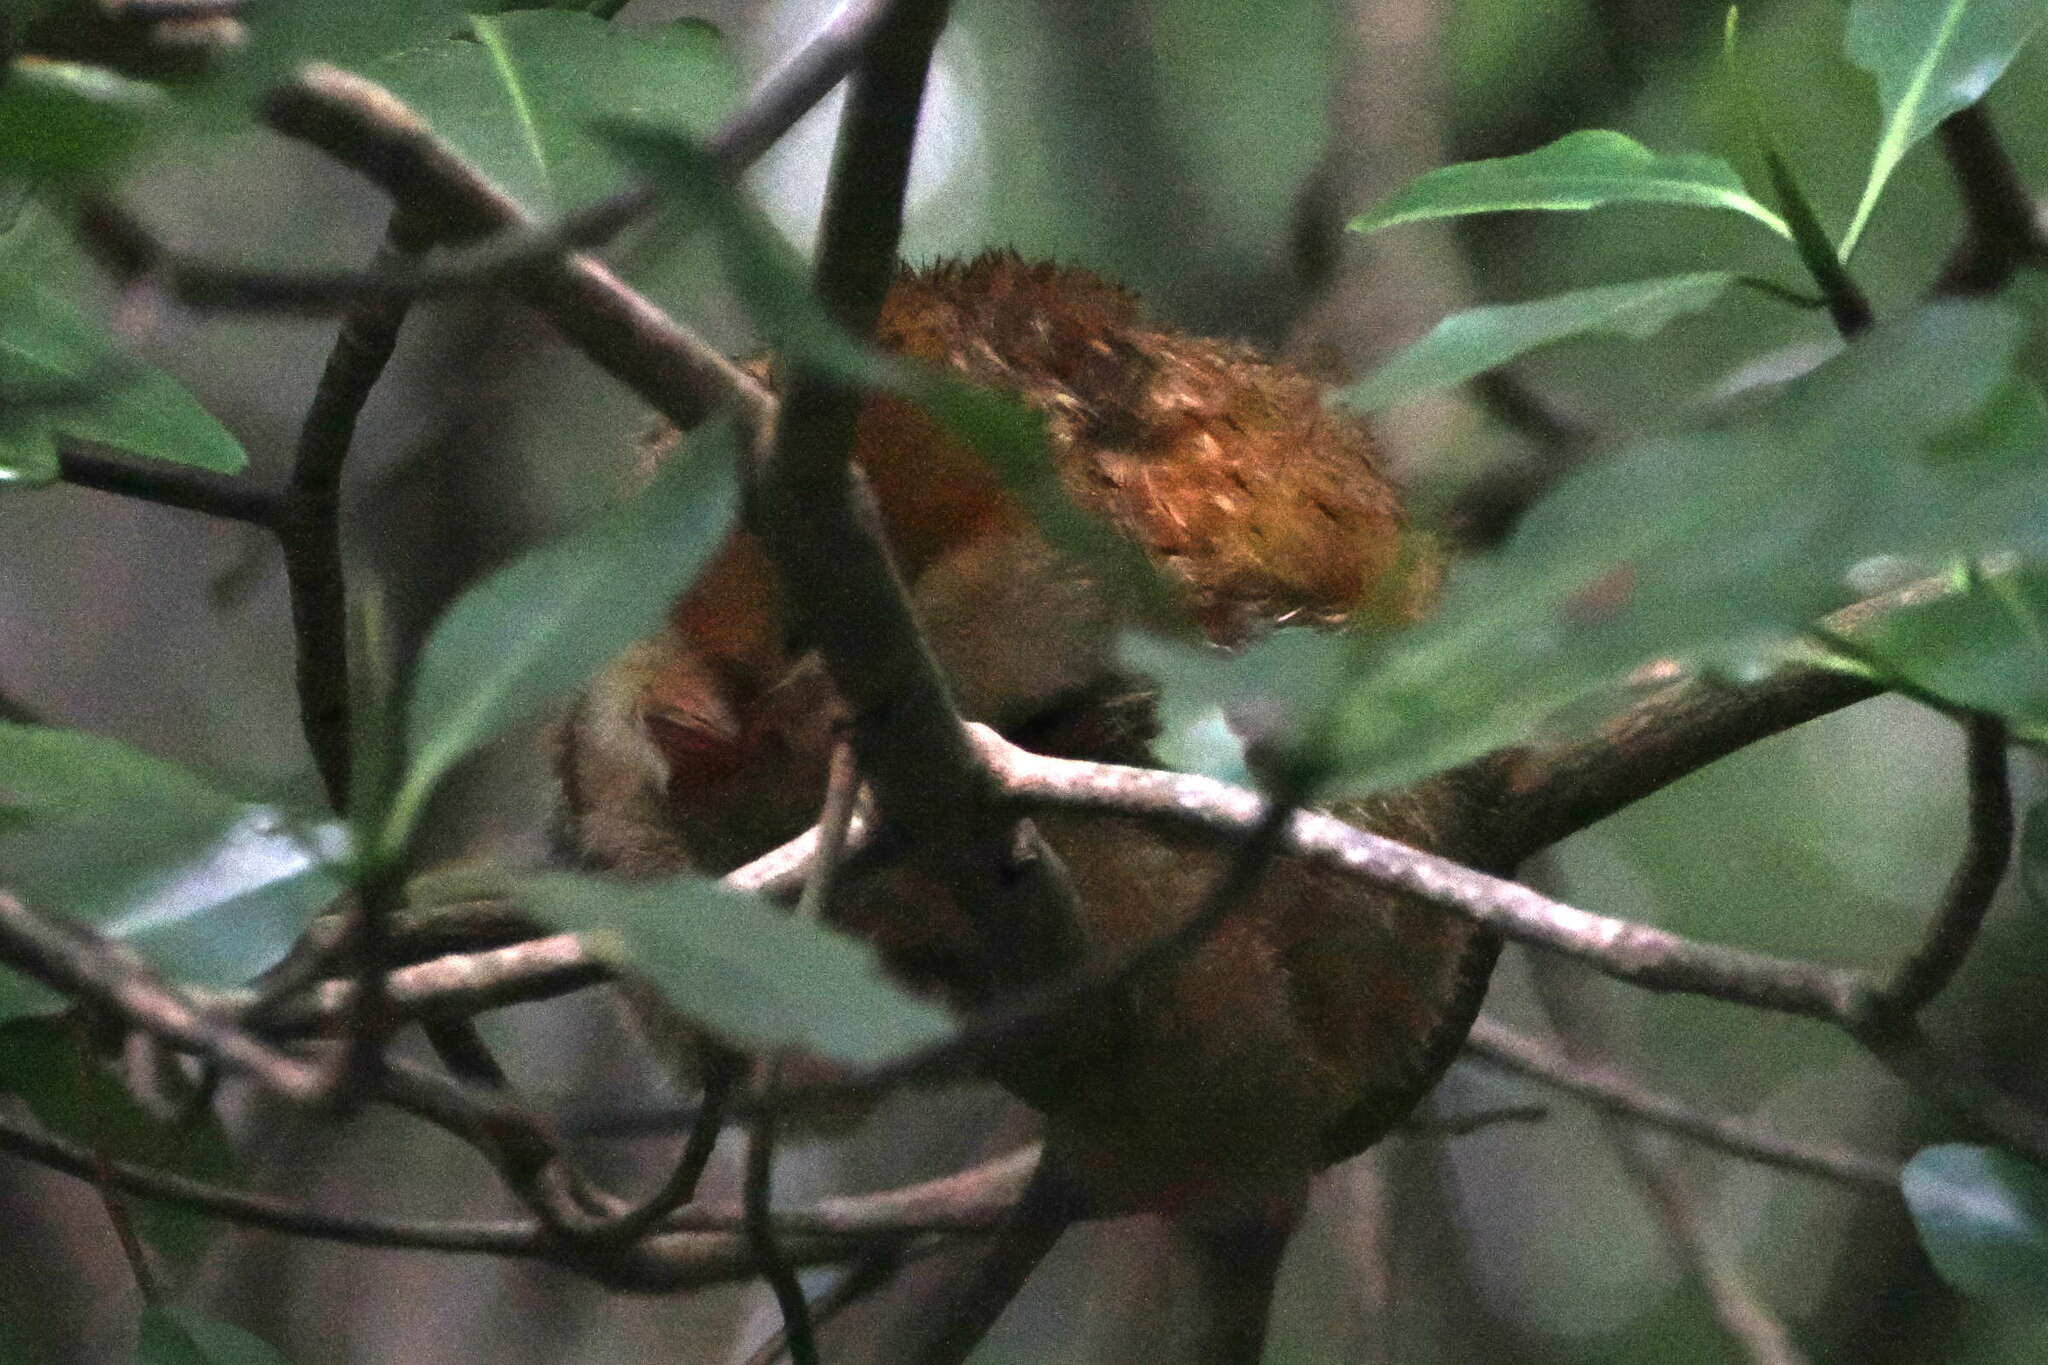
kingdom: Animalia
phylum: Chordata
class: Mammalia
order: Pilosa
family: Cyclopedidae
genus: Cyclopes
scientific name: Cyclopes didactylus
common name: Silky anteater
